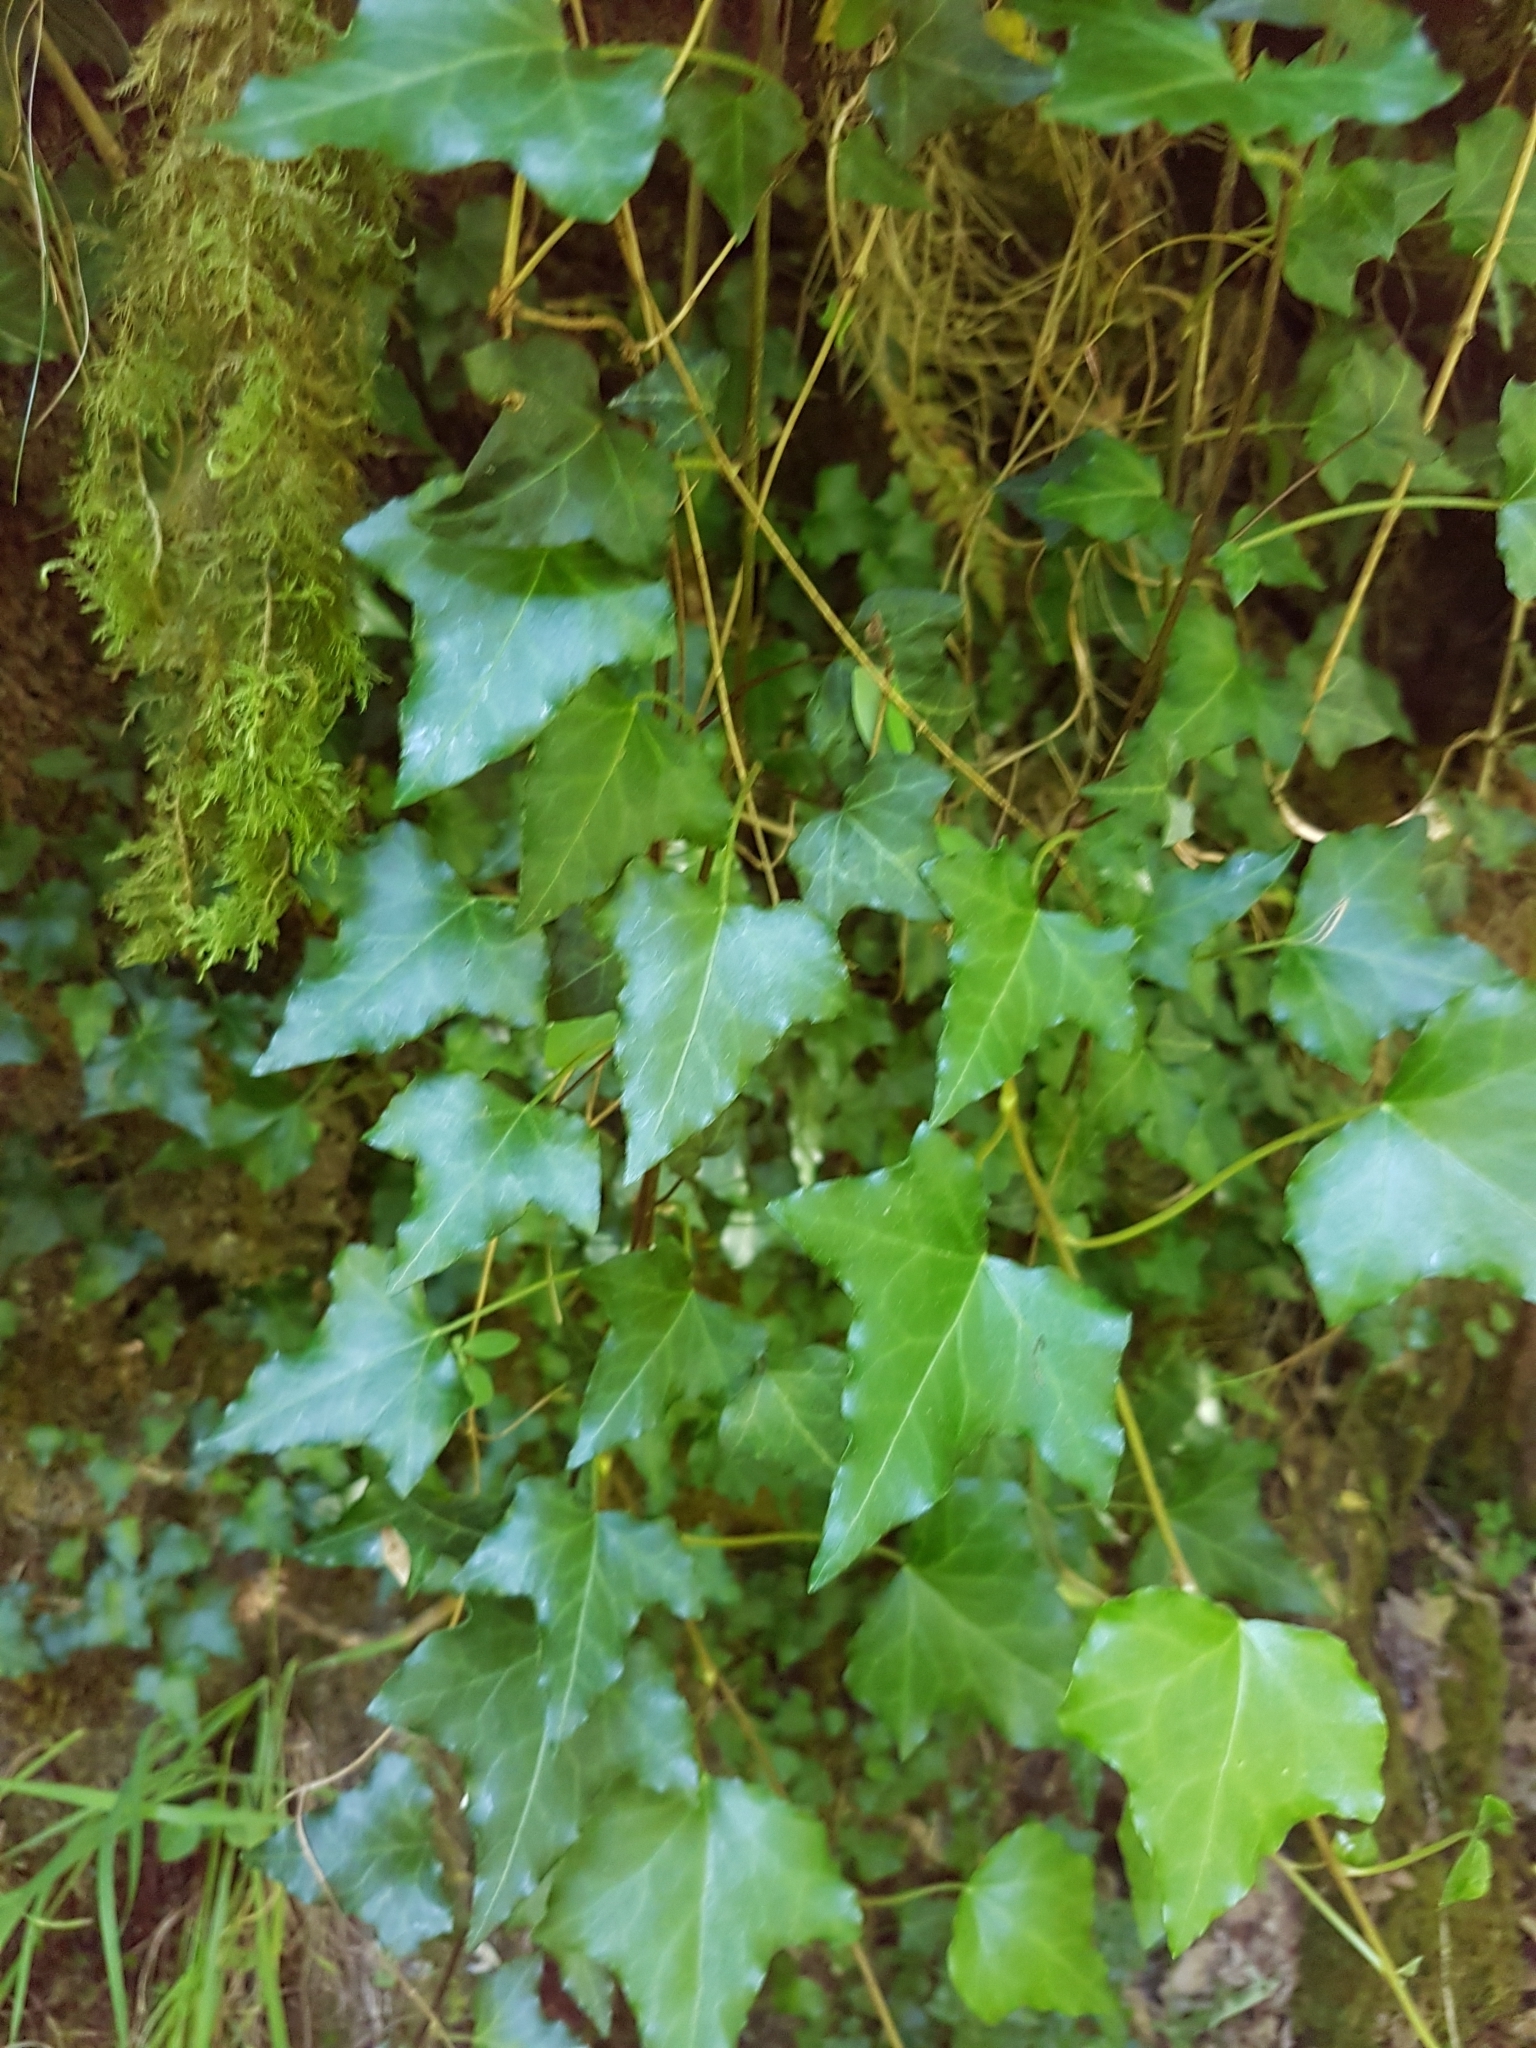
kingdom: Plantae
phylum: Tracheophyta
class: Magnoliopsida
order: Apiales
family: Araliaceae
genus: Hedera
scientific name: Hedera hibernica
